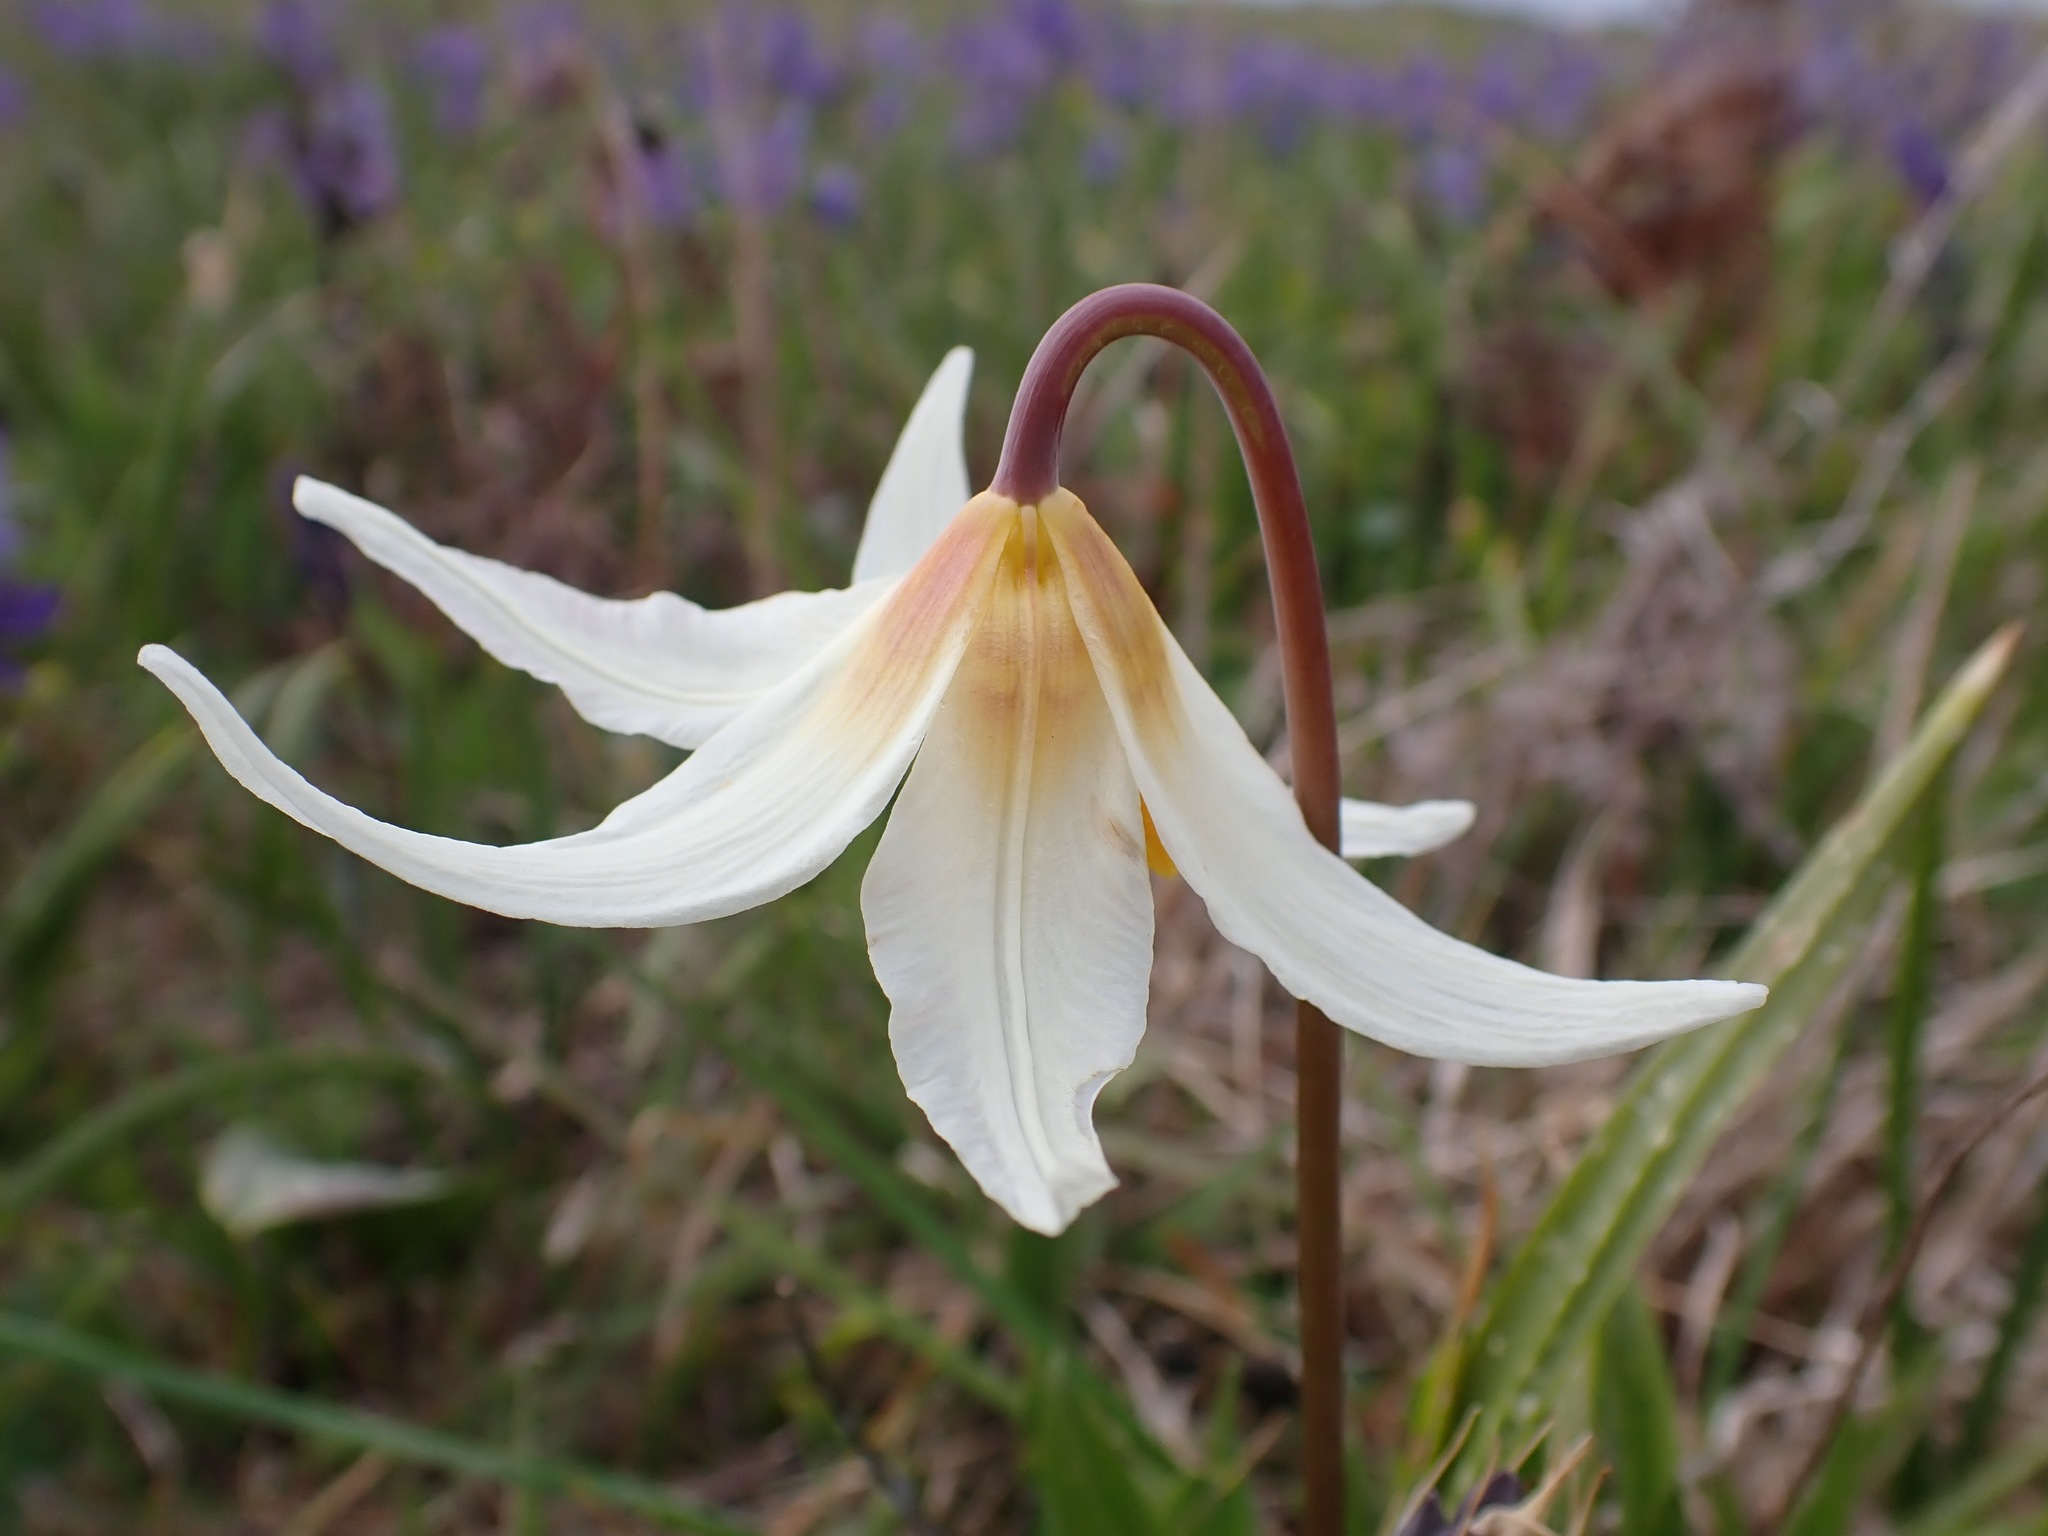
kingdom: Plantae
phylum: Tracheophyta
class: Liliopsida
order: Liliales
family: Liliaceae
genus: Erythronium
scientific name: Erythronium oregonum
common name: Giant adder's-tongue
